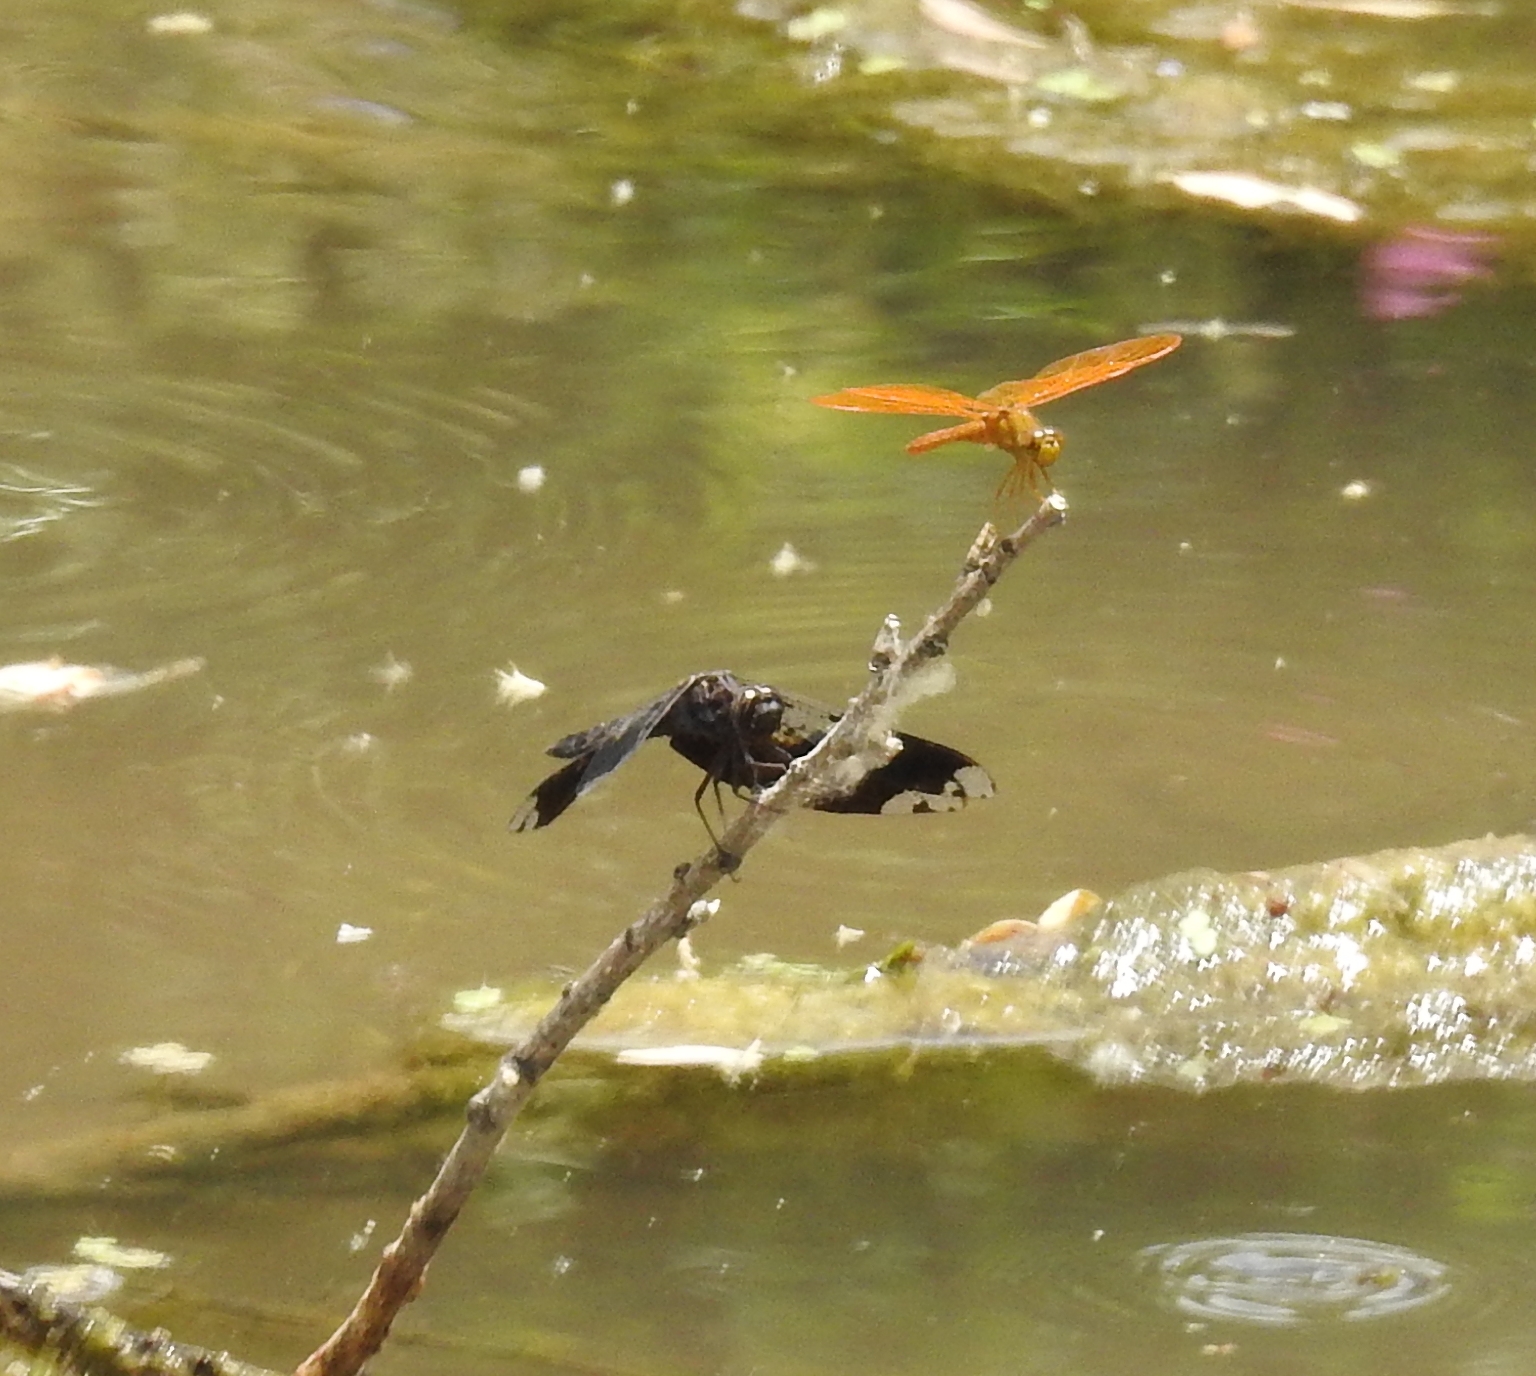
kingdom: Animalia
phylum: Arthropoda
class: Insecta
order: Odonata
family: Libellulidae
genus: Pseudoleon
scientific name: Pseudoleon superbus
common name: Filigree skimmer
